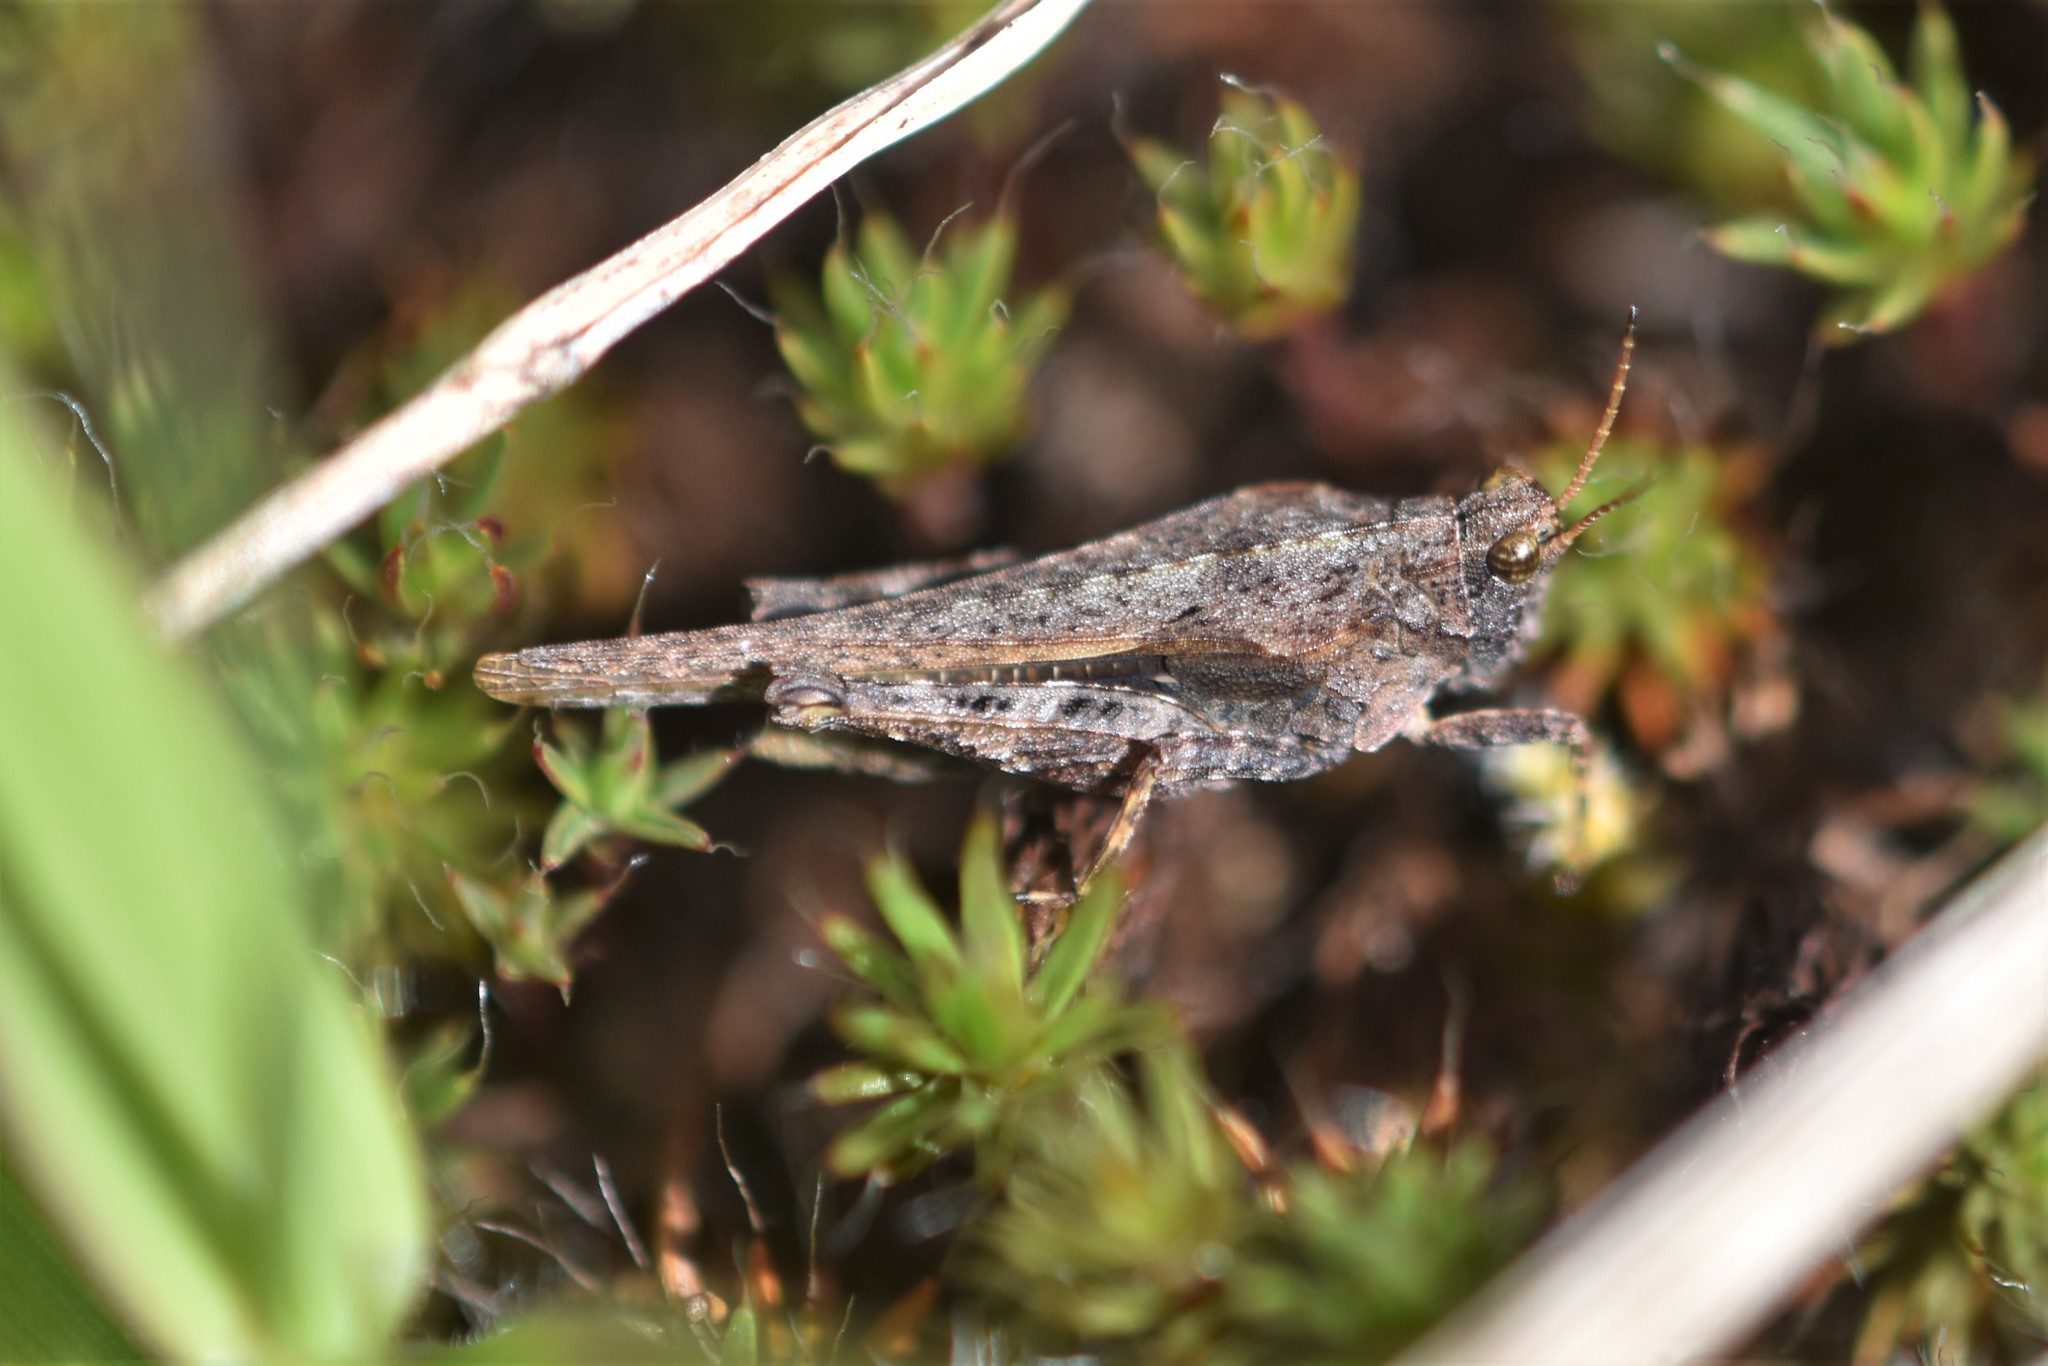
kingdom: Animalia
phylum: Arthropoda
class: Insecta
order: Orthoptera
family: Tetrigidae
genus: Tetrix
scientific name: Tetrix subulata
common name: Slender ground-hopper
